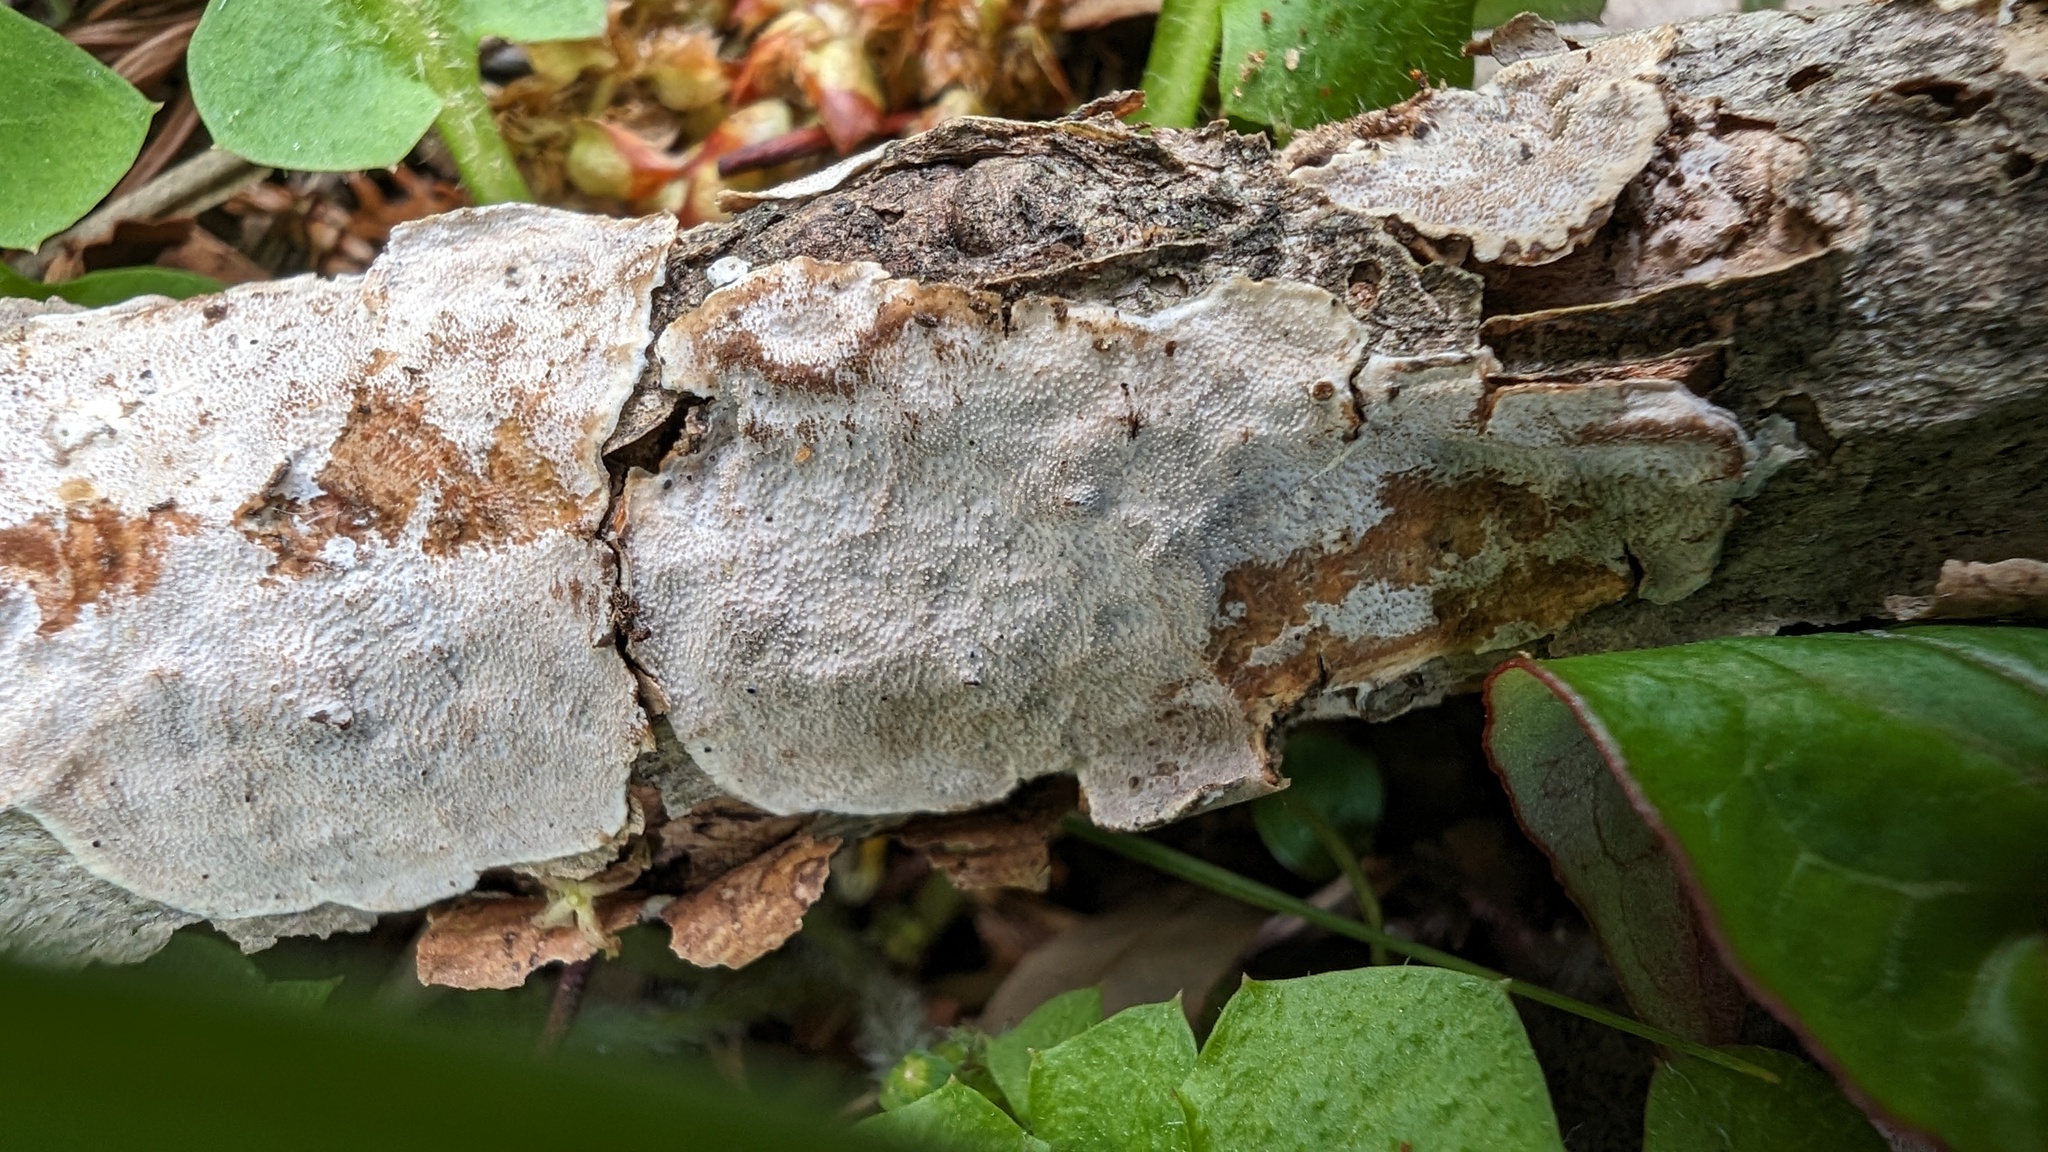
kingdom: Fungi
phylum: Basidiomycota
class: Agaricomycetes
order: Auriculariales
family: Auriculariaceae
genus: Heterochaete
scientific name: Heterochaete delicata
